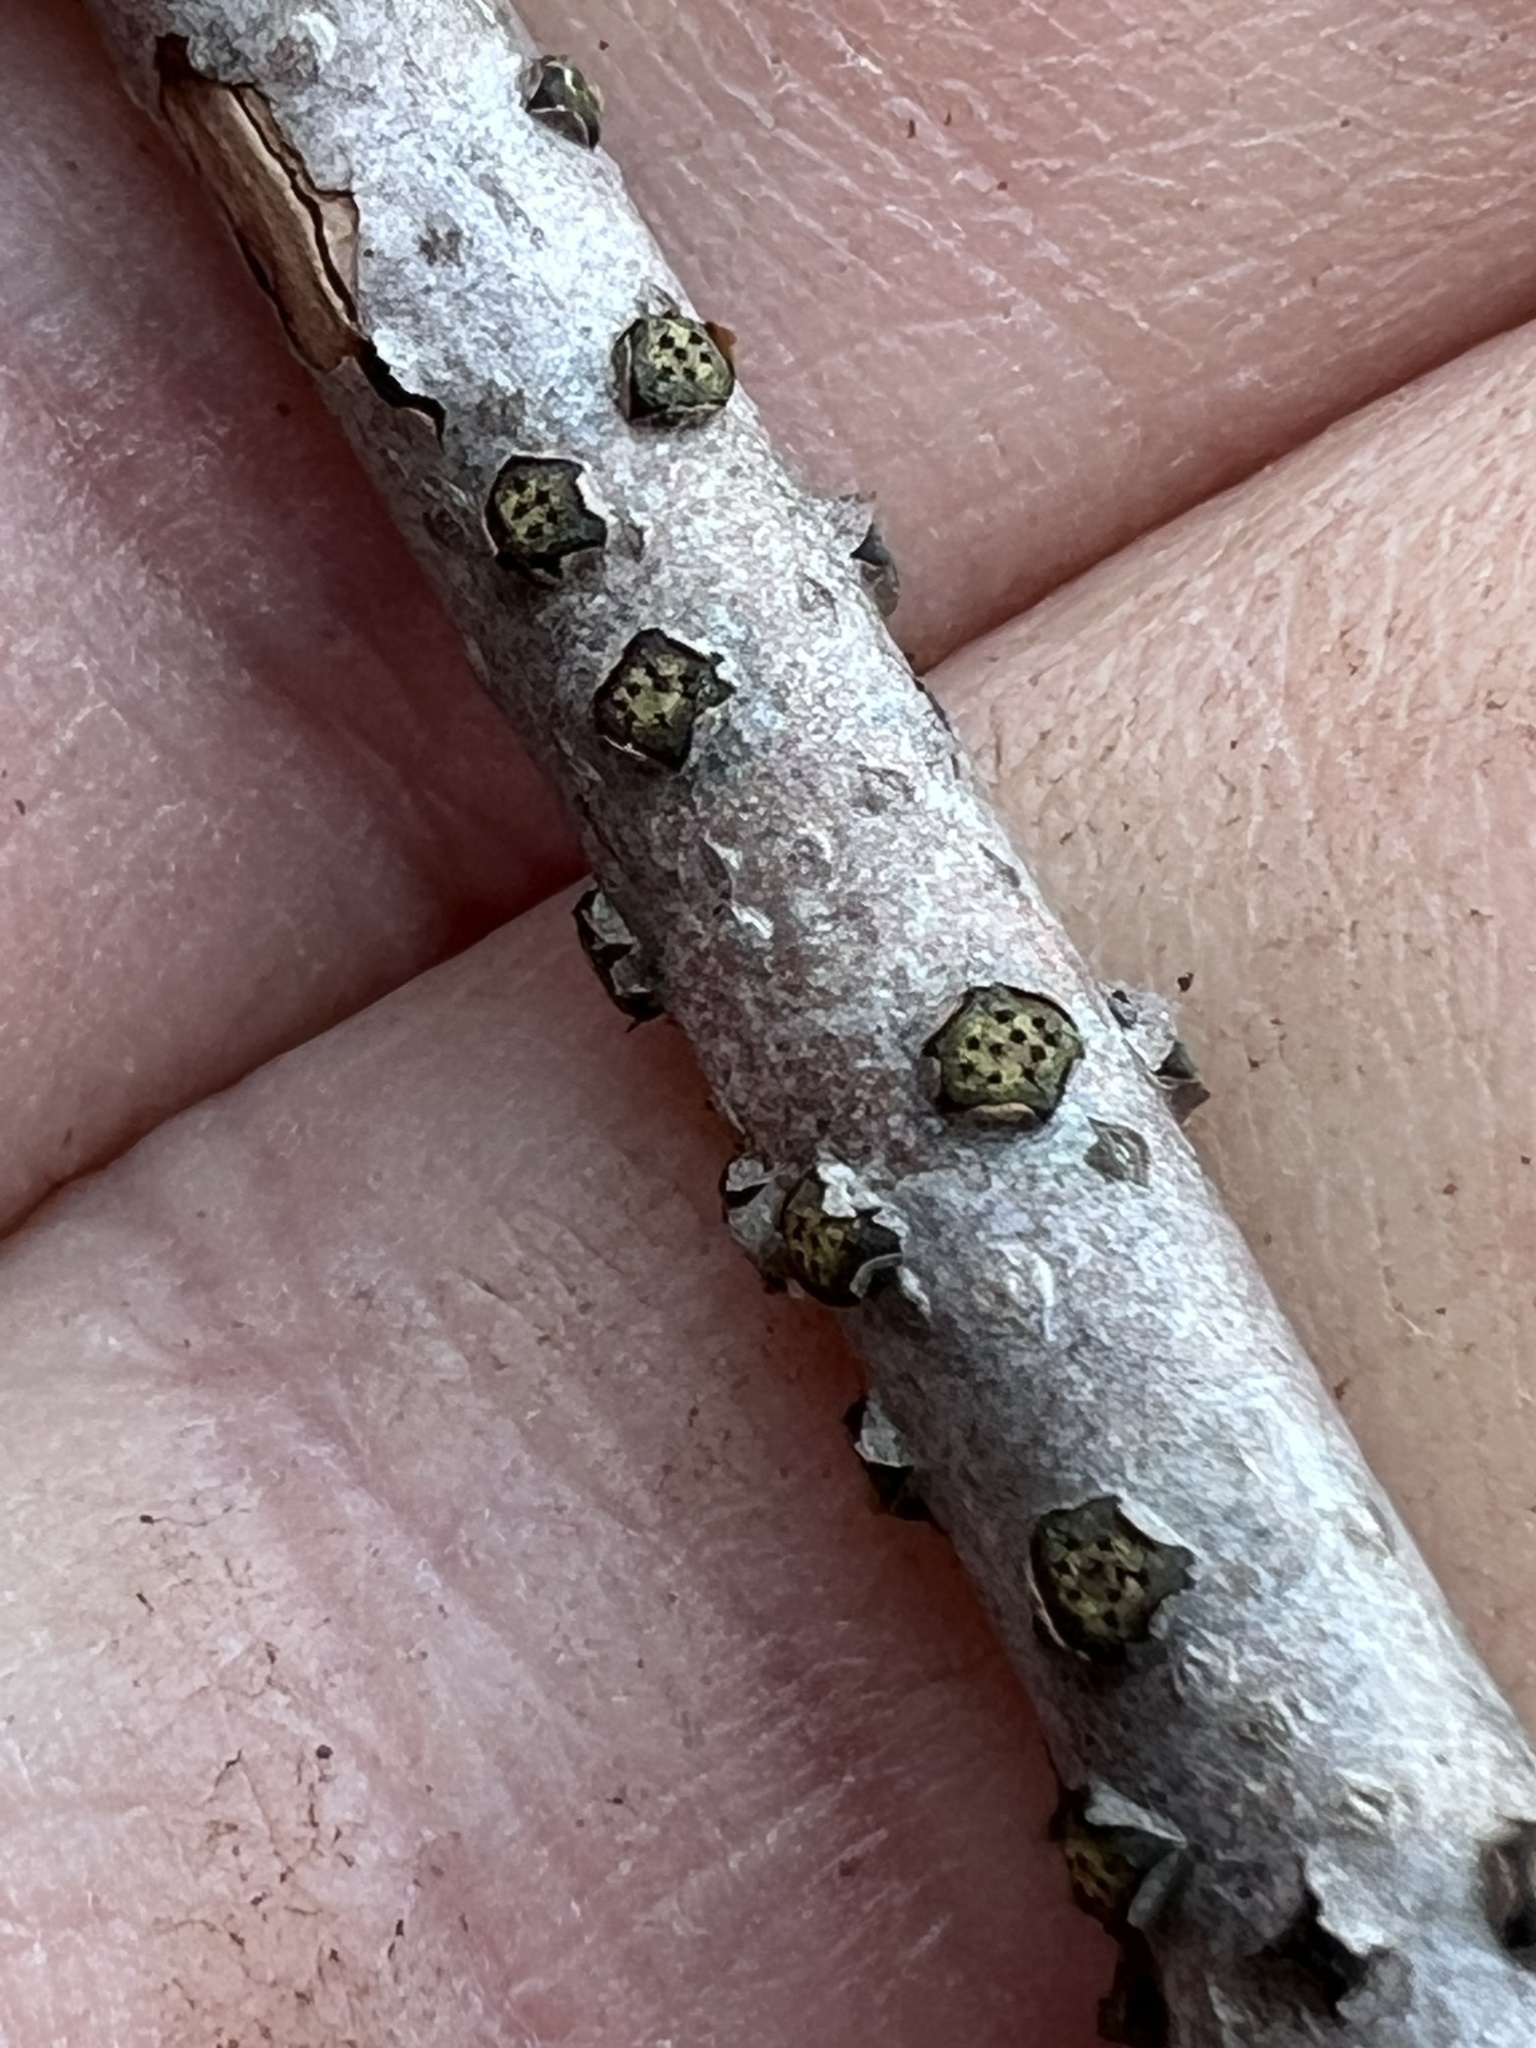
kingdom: Fungi
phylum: Ascomycota
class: Sordariomycetes
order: Xylariales
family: Diatrypaceae
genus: Diatrype
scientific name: Diatrype virescens
